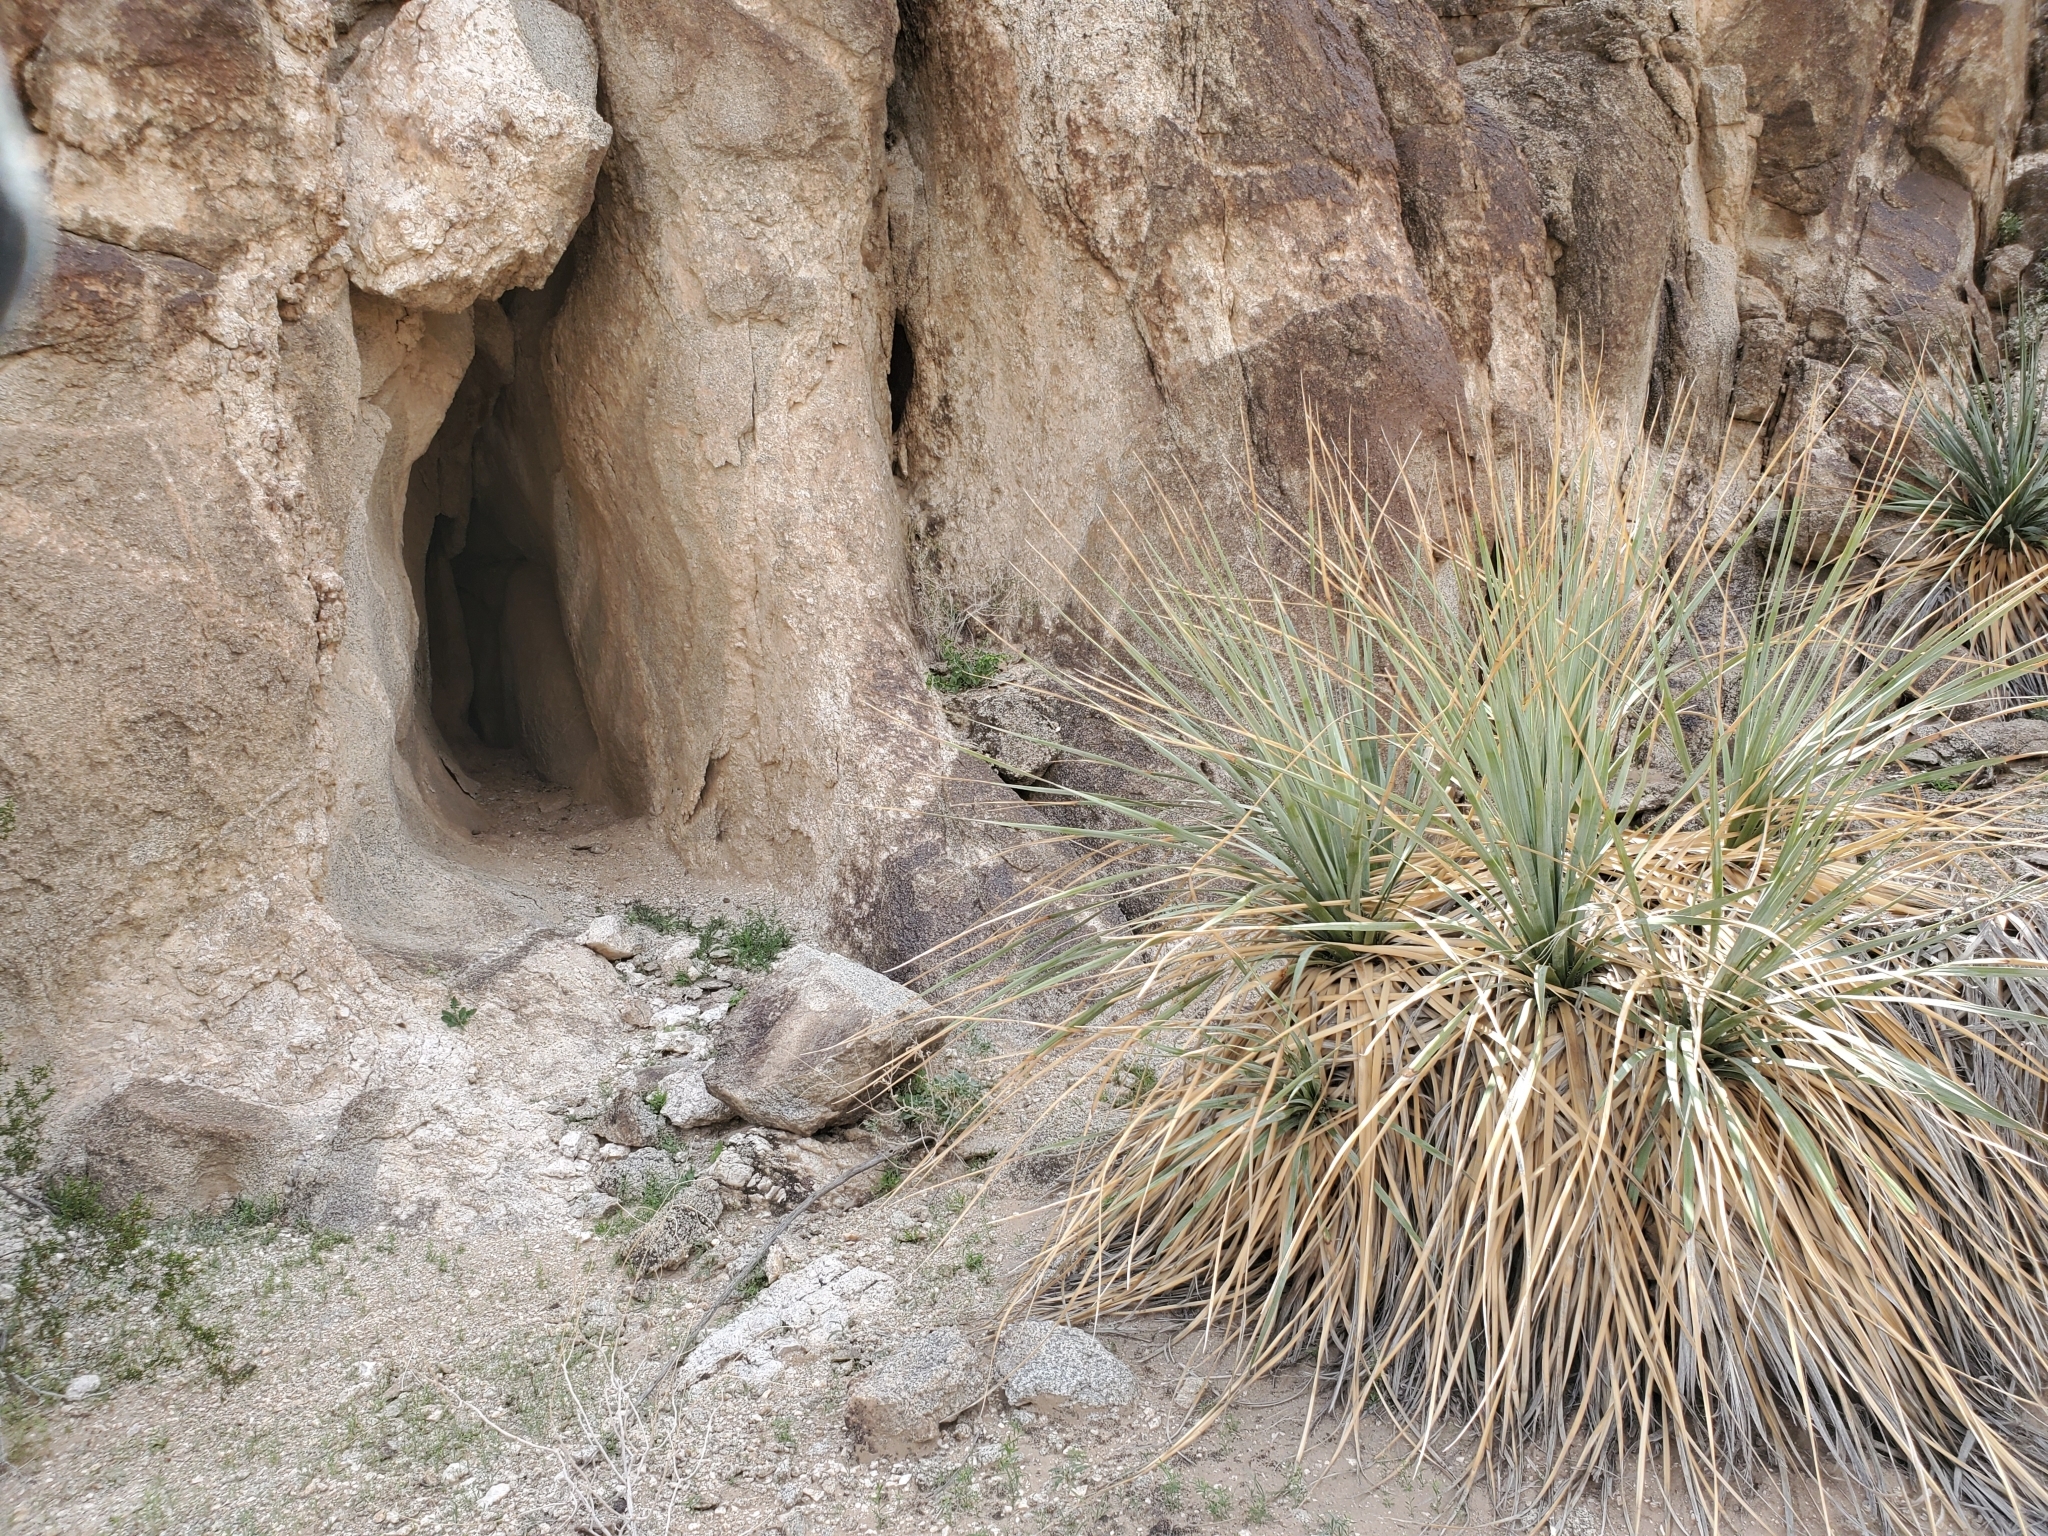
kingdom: Plantae
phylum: Tracheophyta
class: Liliopsida
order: Asparagales
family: Asparagaceae
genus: Nolina
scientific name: Nolina bigelovii
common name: Bigelow bear-grass
